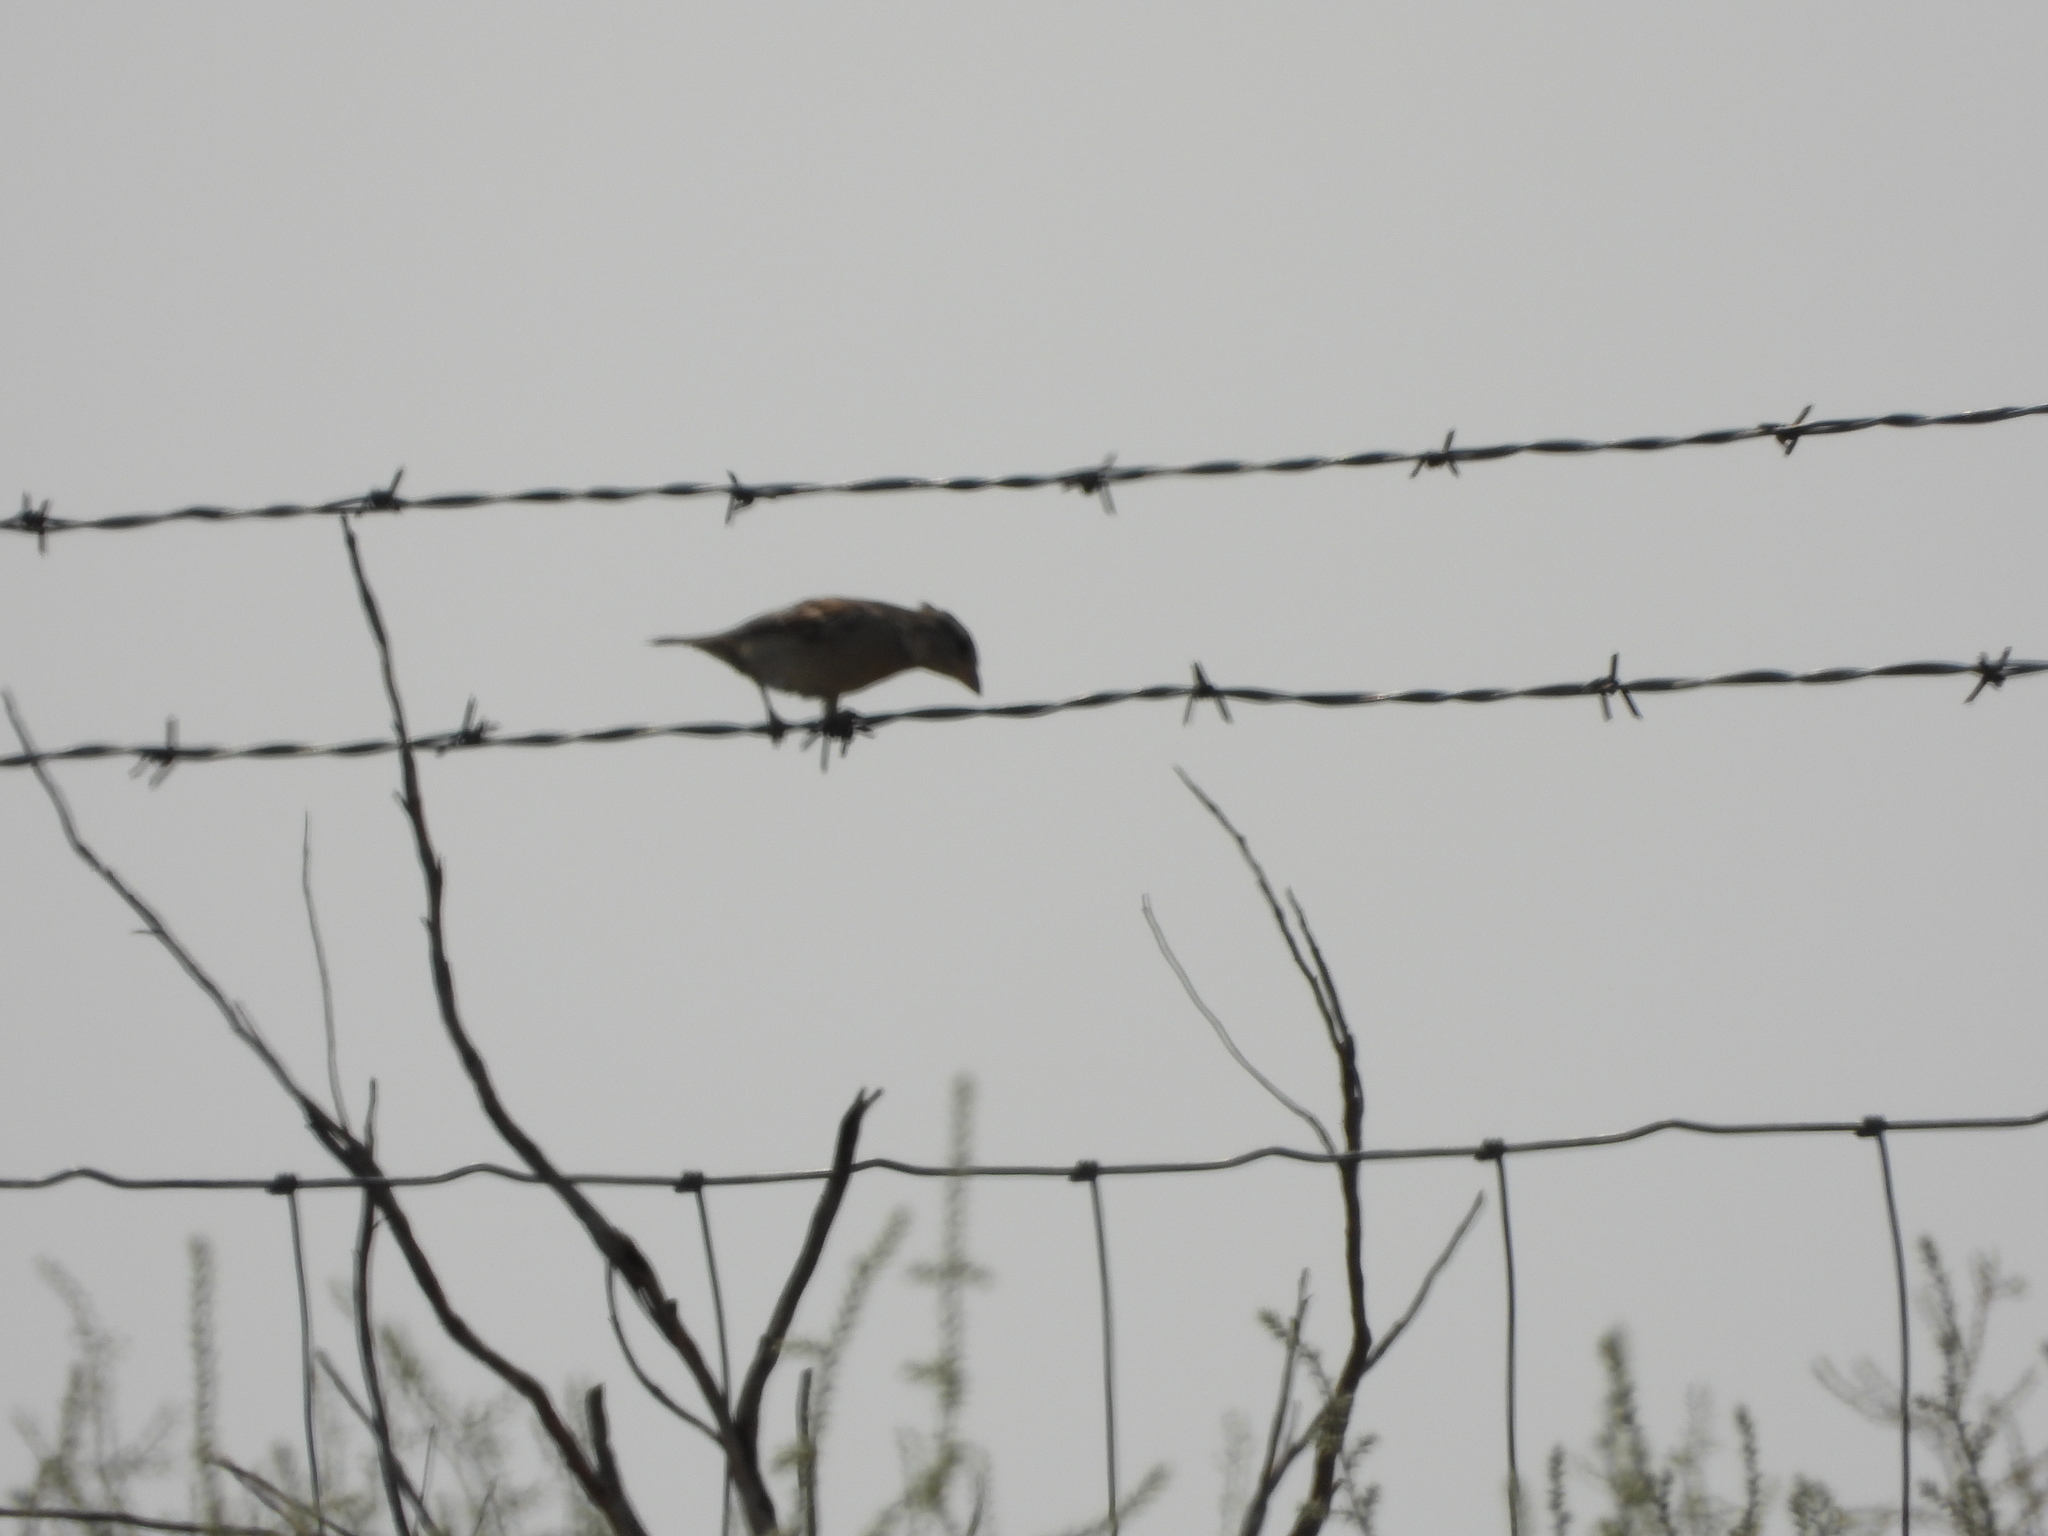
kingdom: Animalia
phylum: Chordata
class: Aves
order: Passeriformes
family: Passeridae
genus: Passer
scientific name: Passer domesticus
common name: House sparrow
